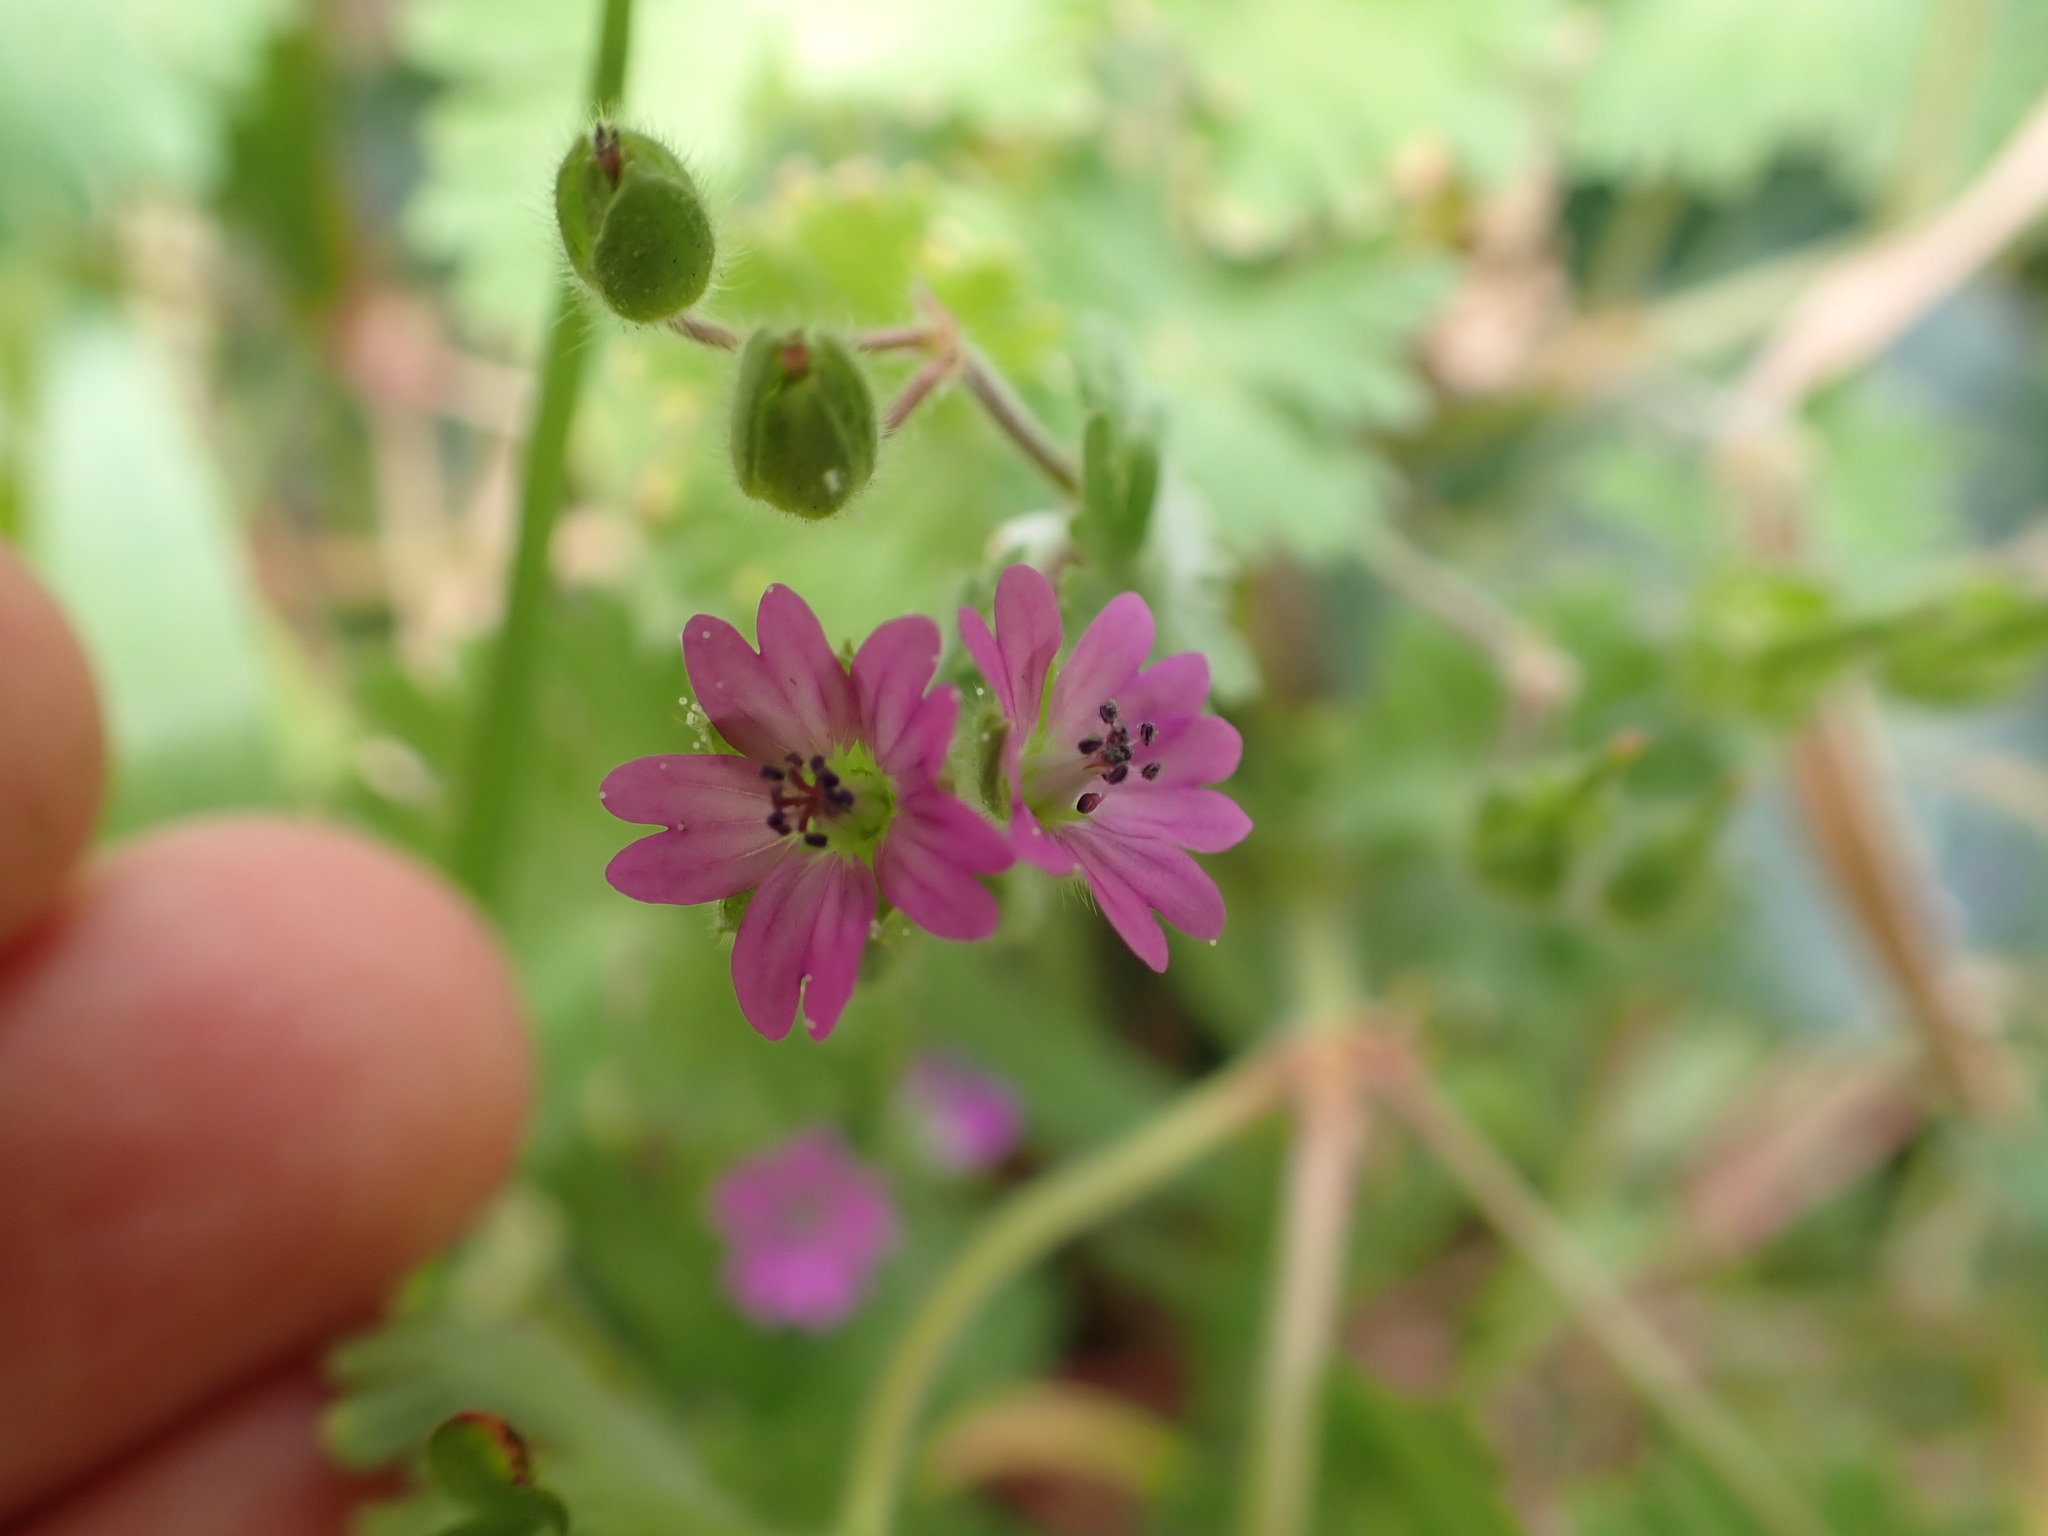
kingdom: Plantae
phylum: Tracheophyta
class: Magnoliopsida
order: Geraniales
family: Geraniaceae
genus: Geranium
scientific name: Geranium molle
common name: Dove's-foot crane's-bill
